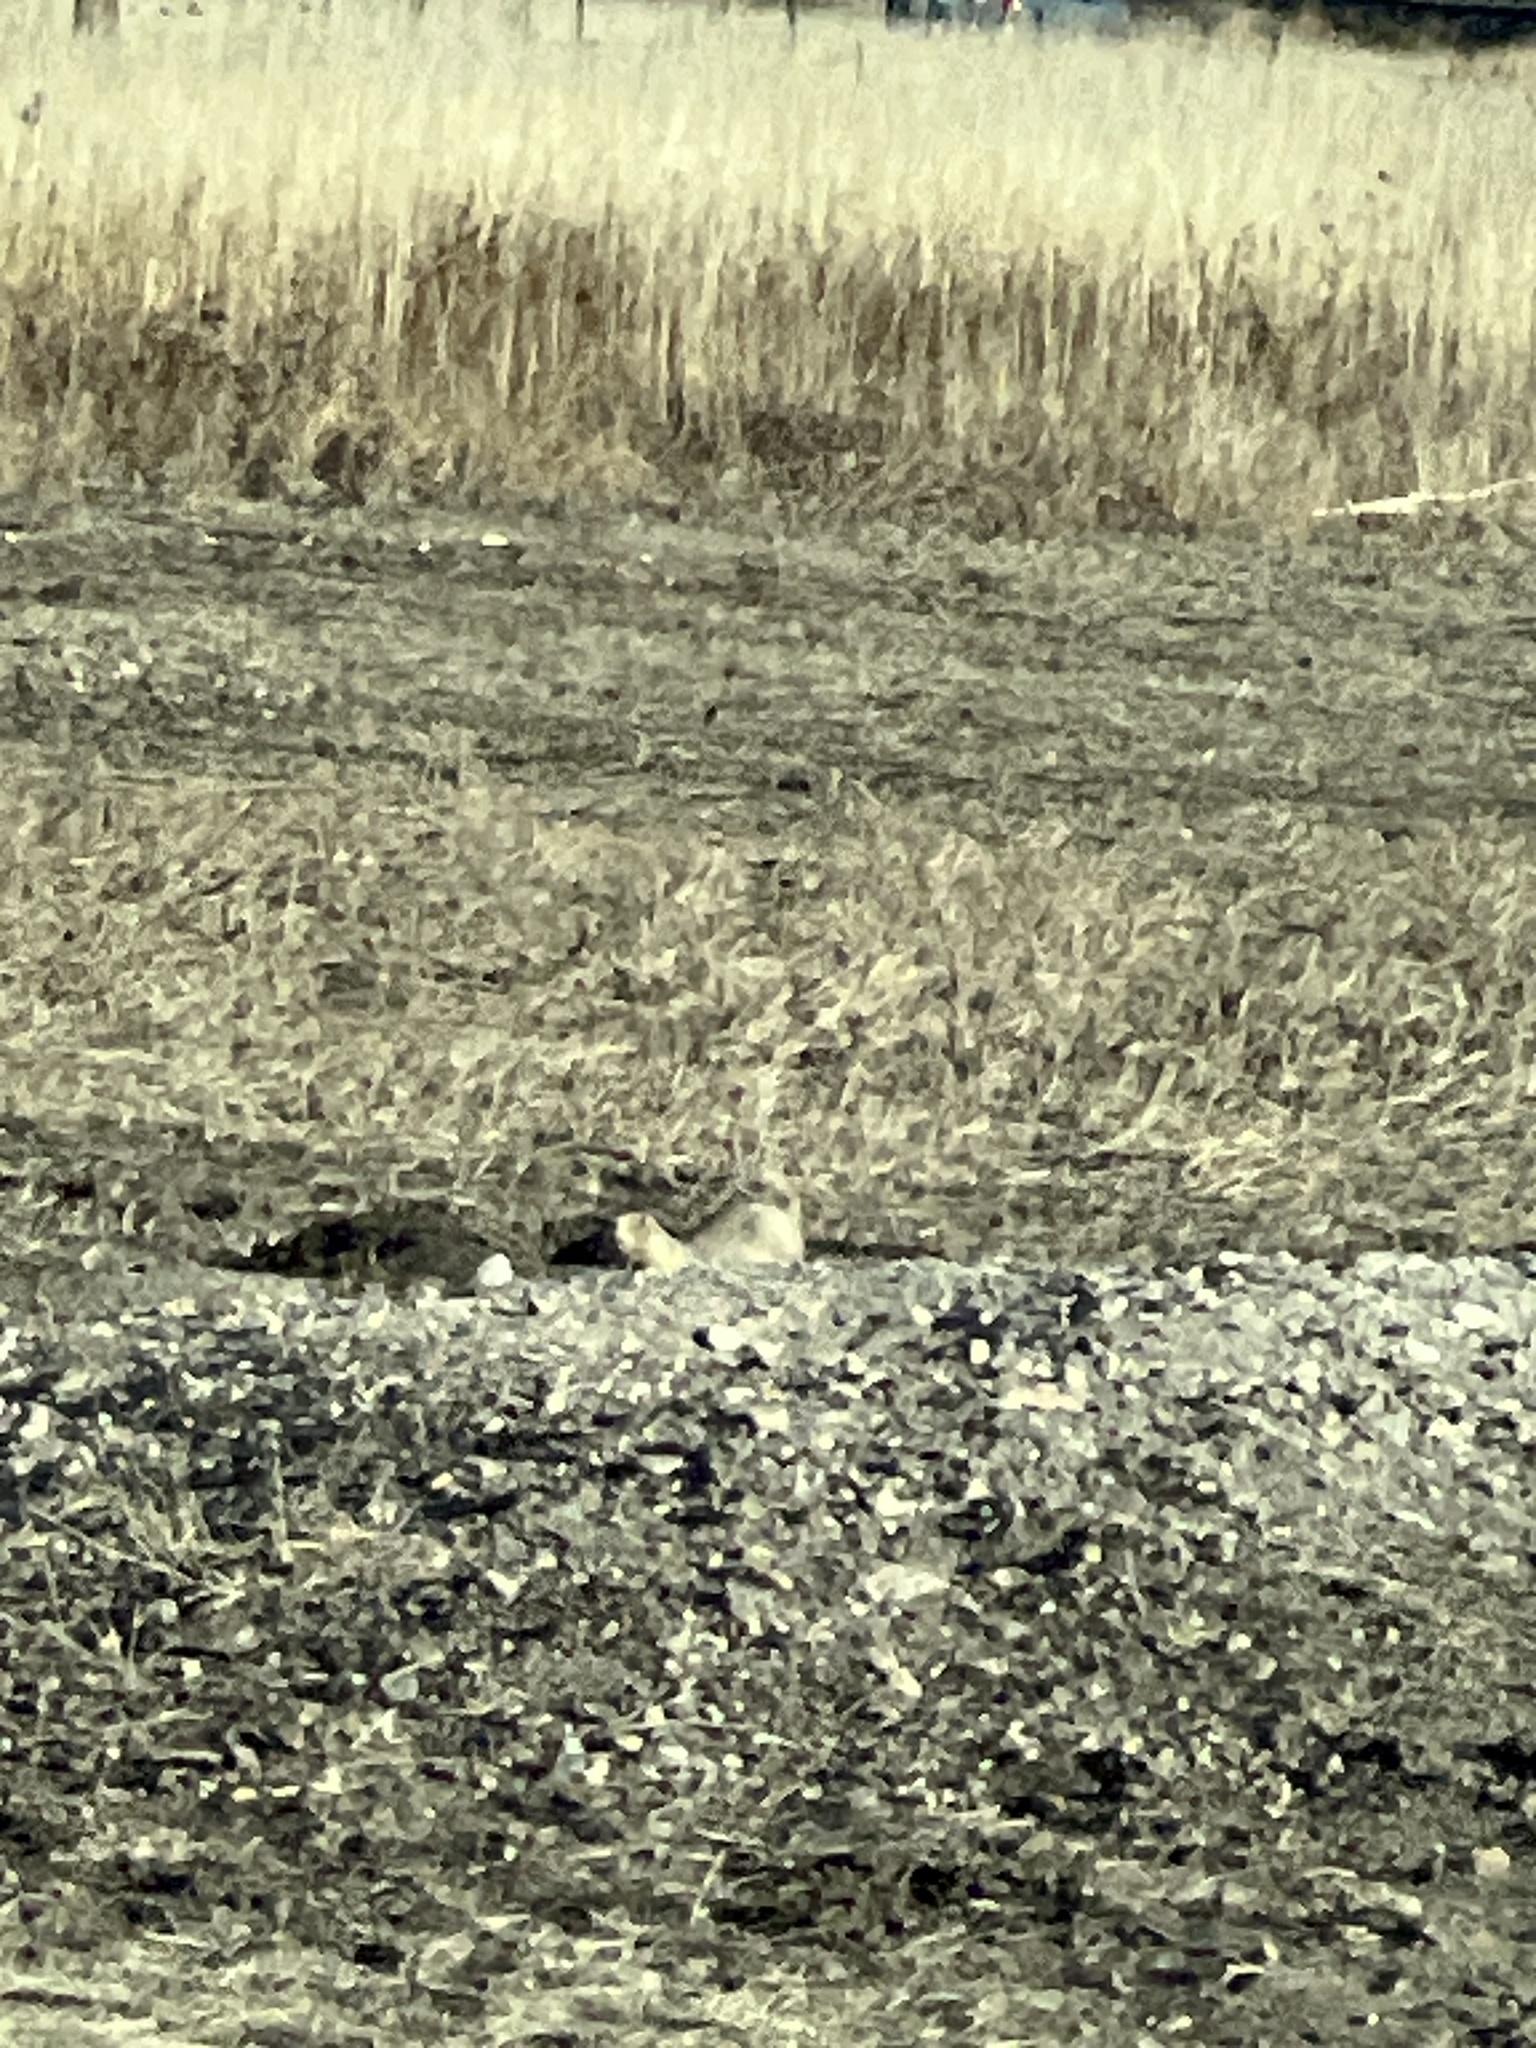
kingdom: Animalia
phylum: Chordata
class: Mammalia
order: Rodentia
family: Sciuridae
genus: Cynomys
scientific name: Cynomys ludovicianus
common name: Black-tailed prairie dog
